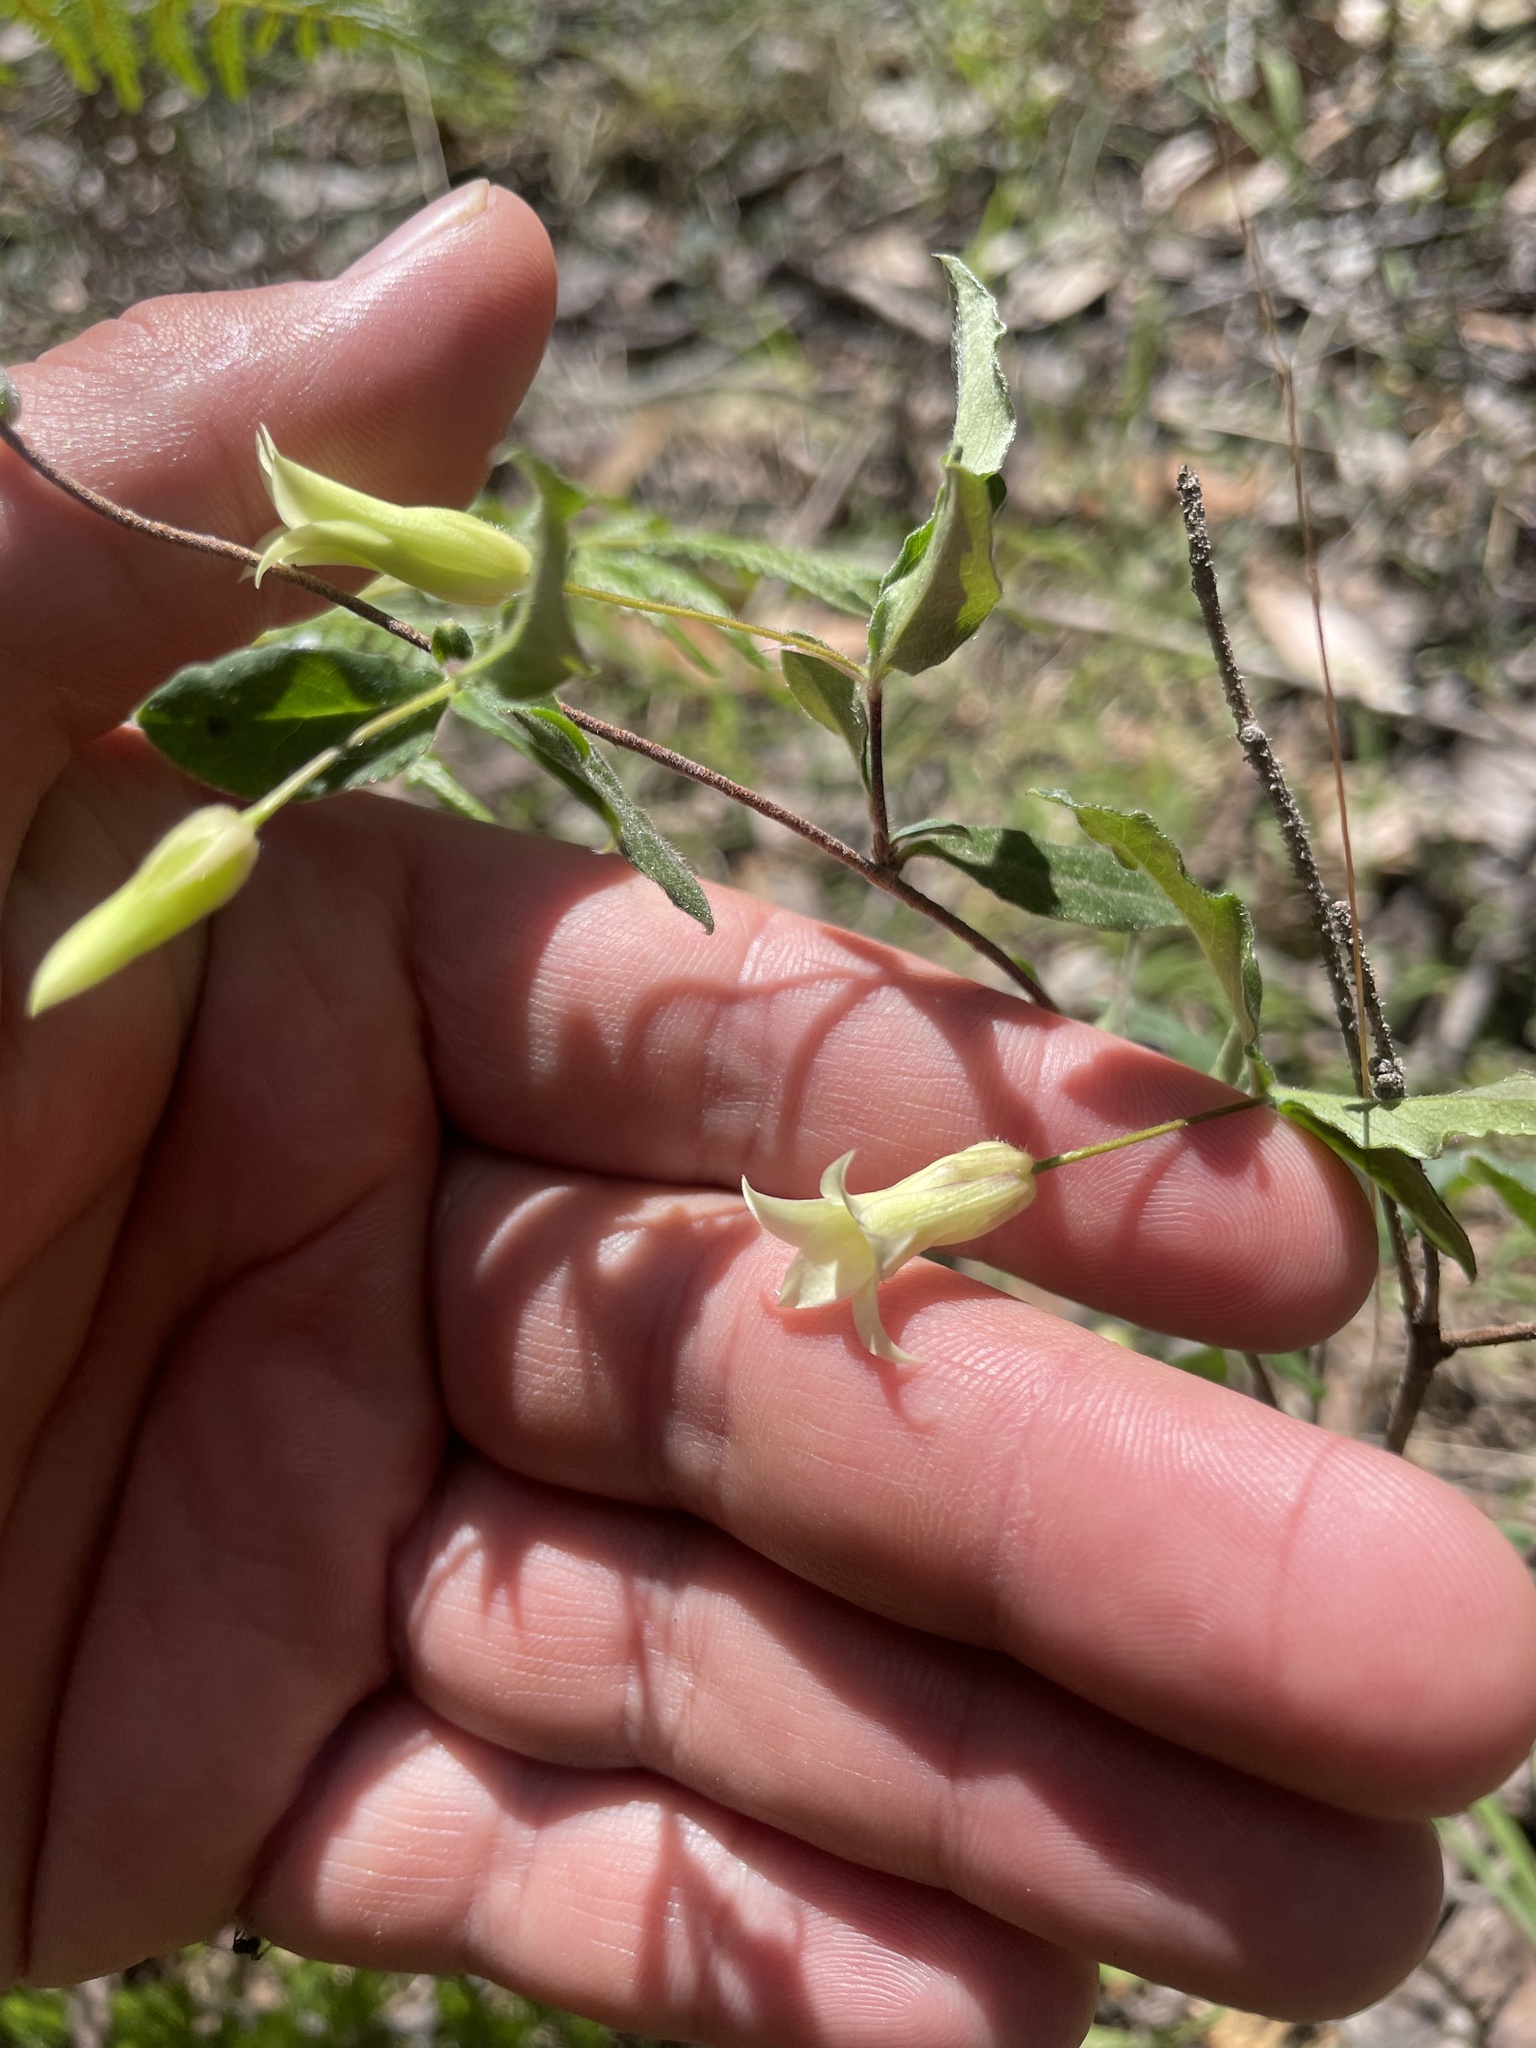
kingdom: Plantae
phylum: Tracheophyta
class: Magnoliopsida
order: Apiales
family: Pittosporaceae
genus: Billardiera
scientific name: Billardiera mutabilis
